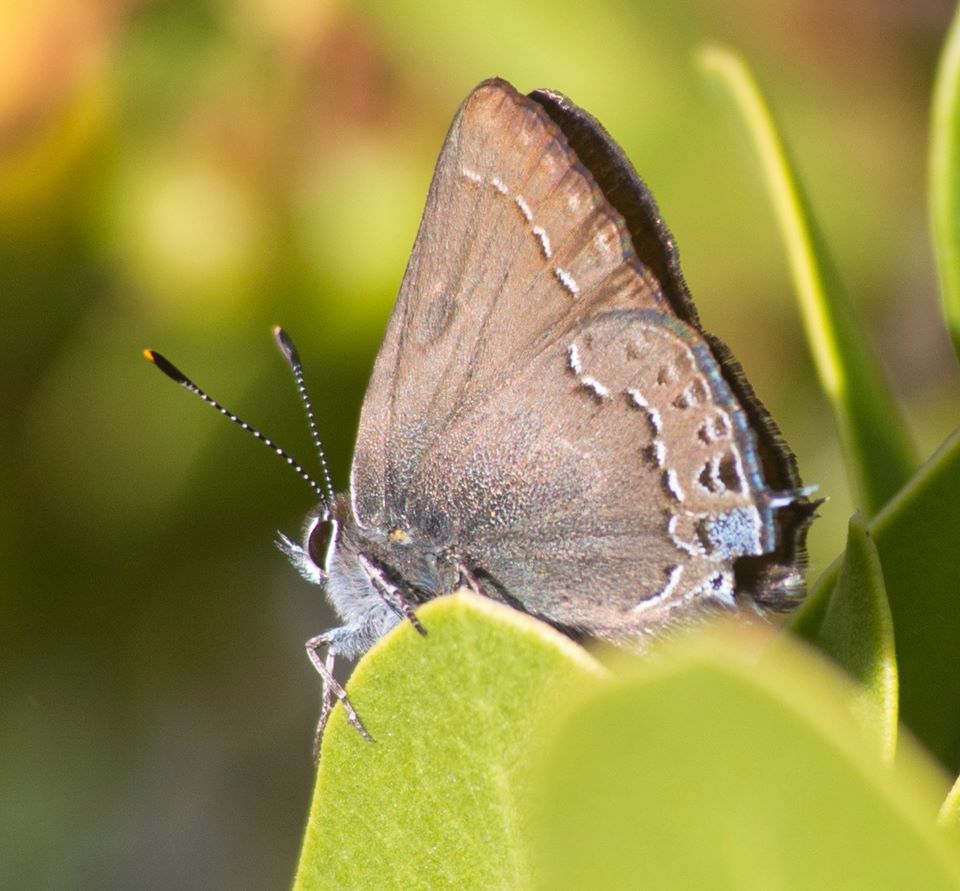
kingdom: Animalia
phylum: Arthropoda
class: Insecta
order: Lepidoptera
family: Lycaenidae
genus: Strymon
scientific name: Strymon saepium
